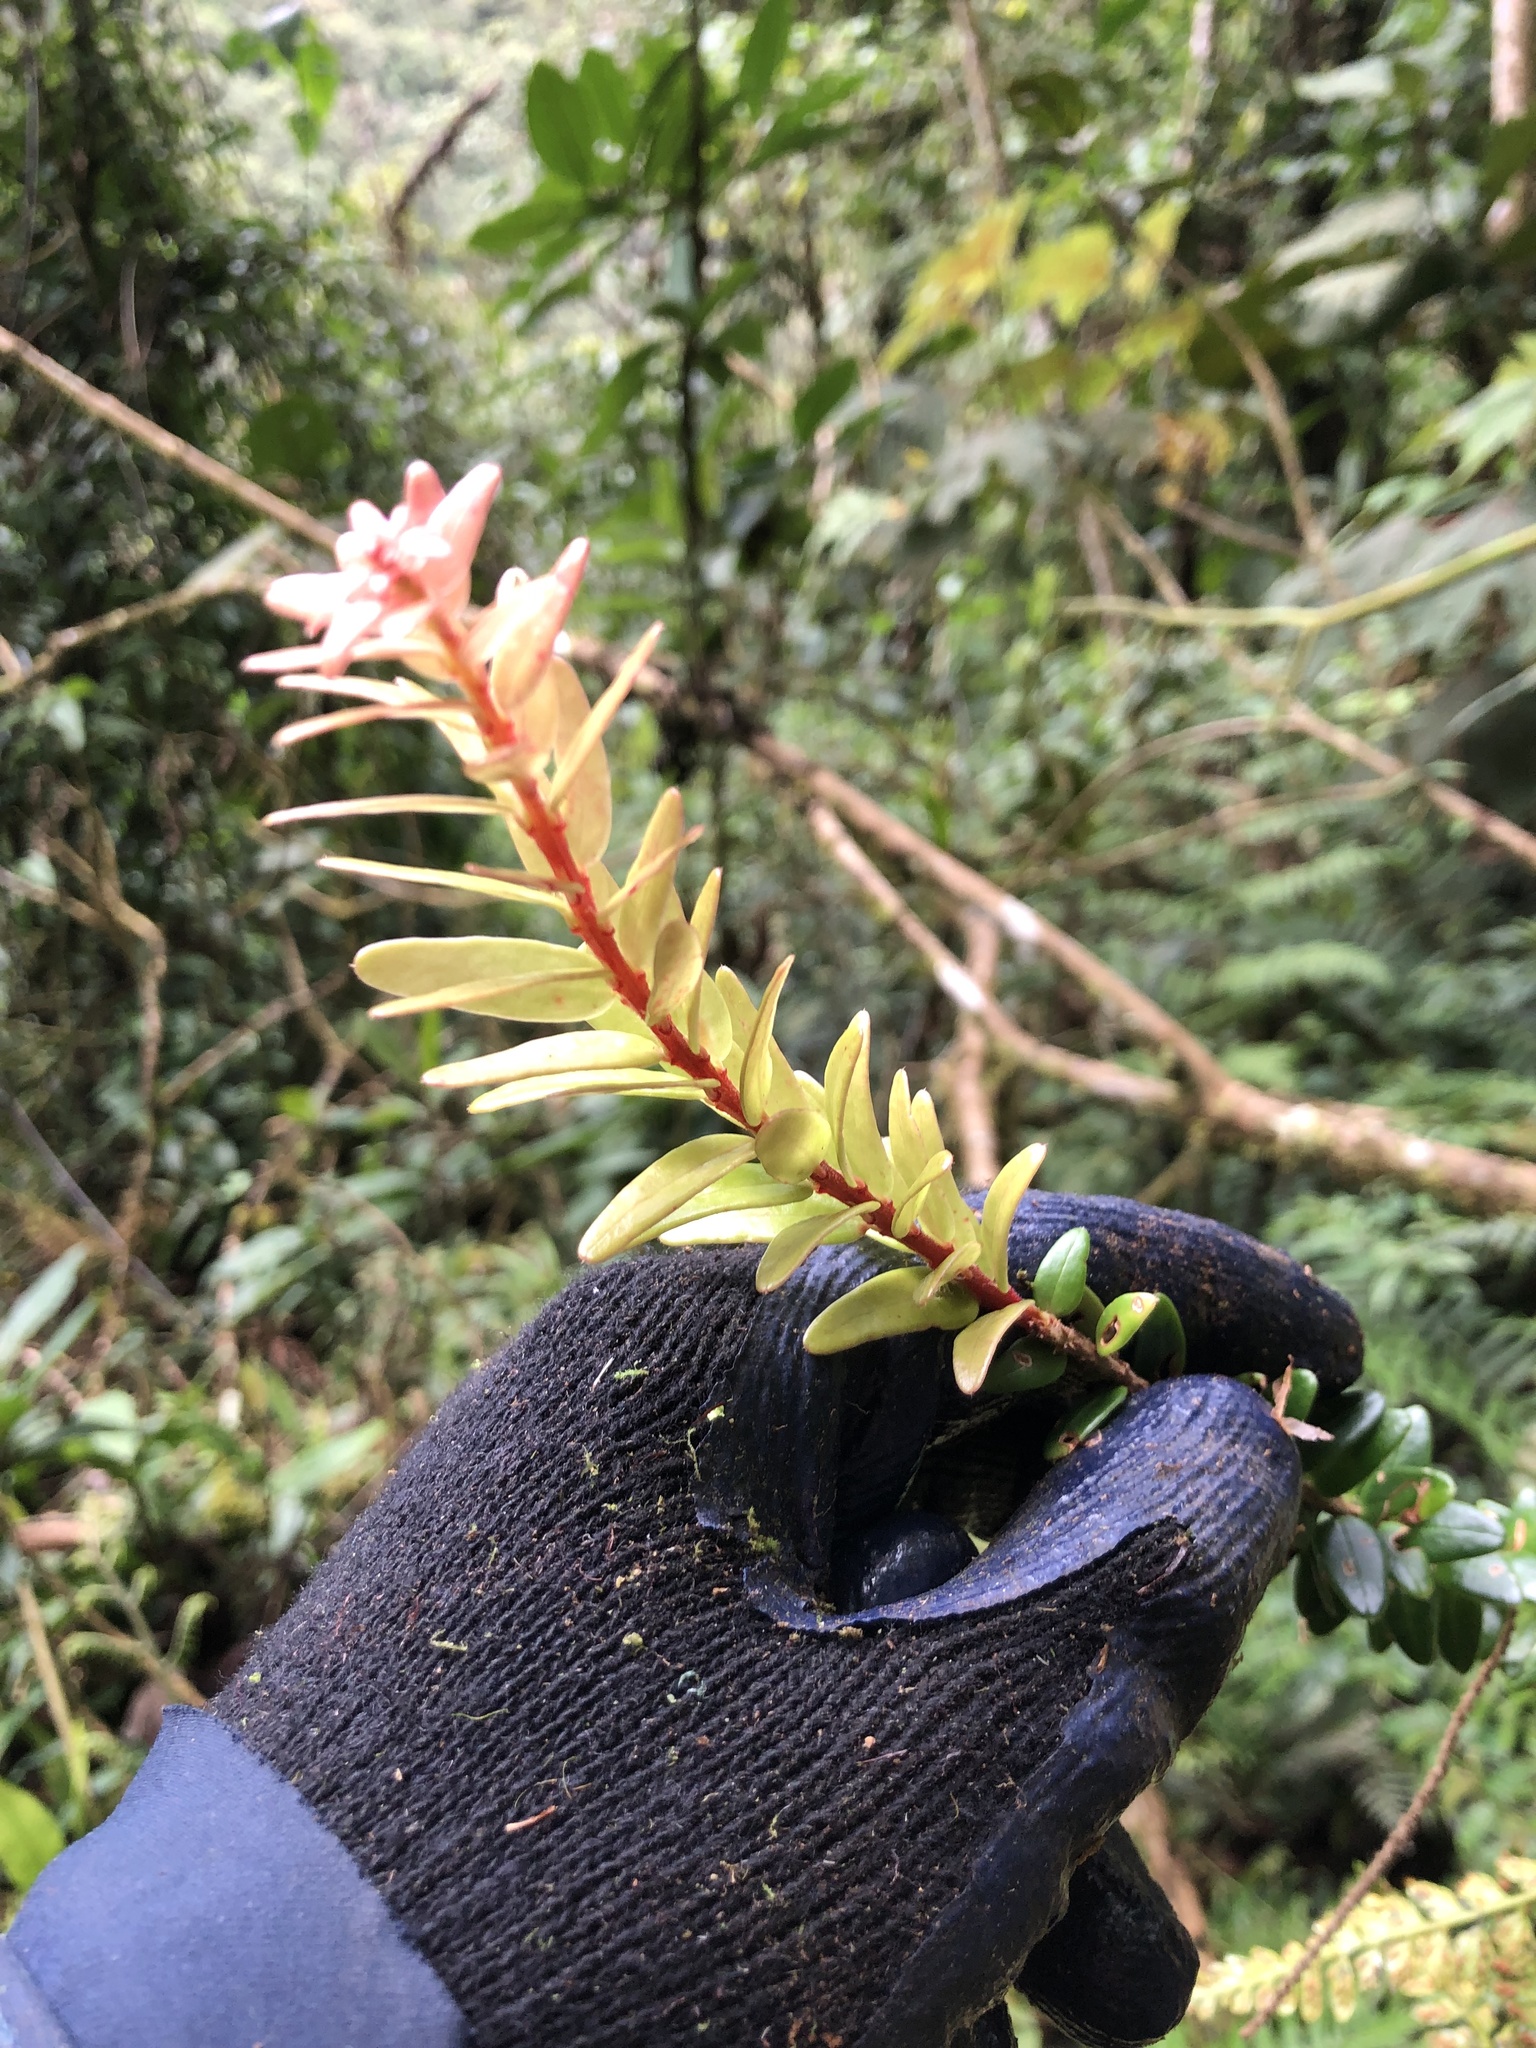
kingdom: Plantae
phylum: Tracheophyta
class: Magnoliopsida
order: Ericales
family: Ericaceae
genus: Demosthenesia
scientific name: Demosthenesia pearcei
